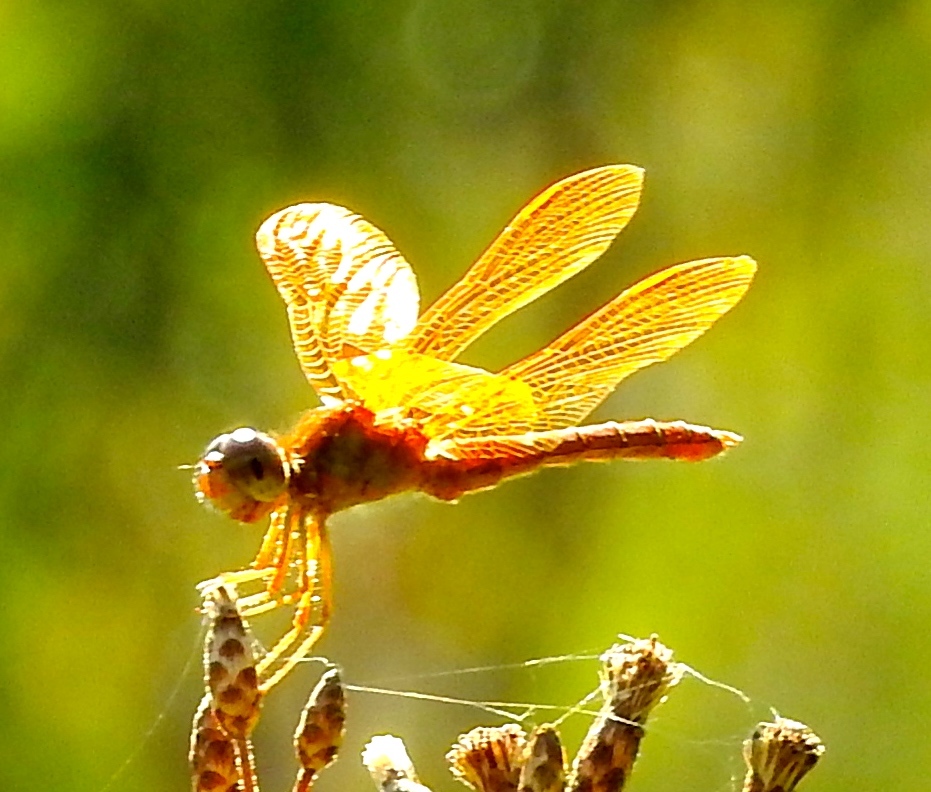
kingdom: Animalia
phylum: Arthropoda
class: Insecta
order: Odonata
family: Libellulidae
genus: Perithemis
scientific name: Perithemis
